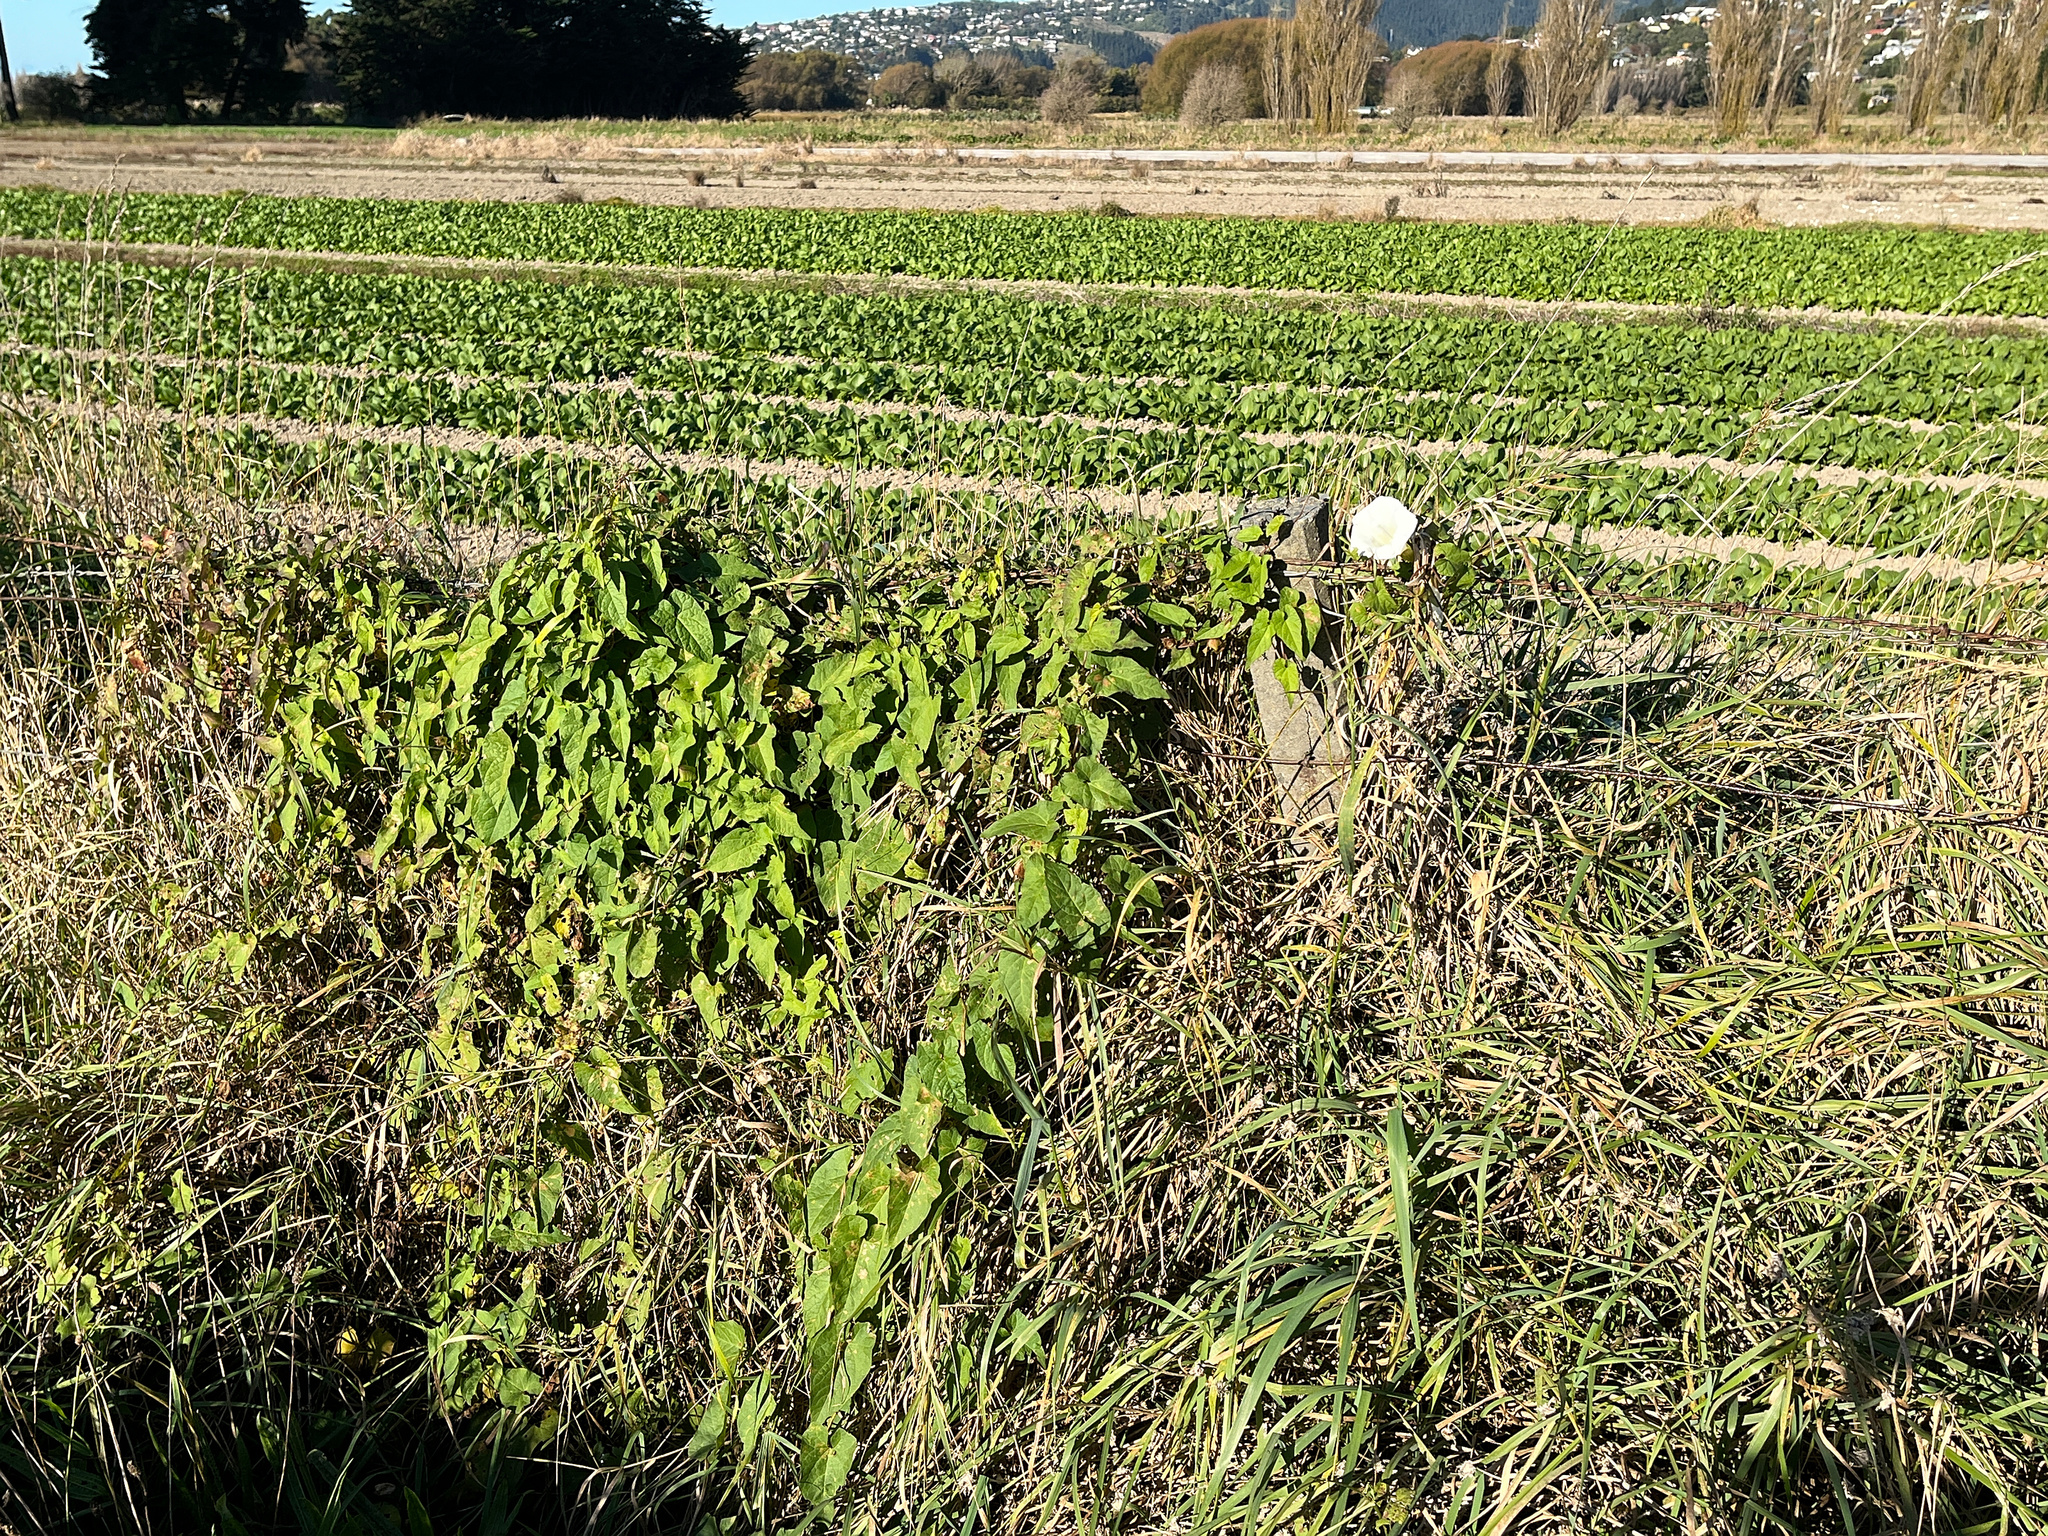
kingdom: Plantae
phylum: Tracheophyta
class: Magnoliopsida
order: Solanales
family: Convolvulaceae
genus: Calystegia
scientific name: Calystegia silvatica
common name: Large bindweed
